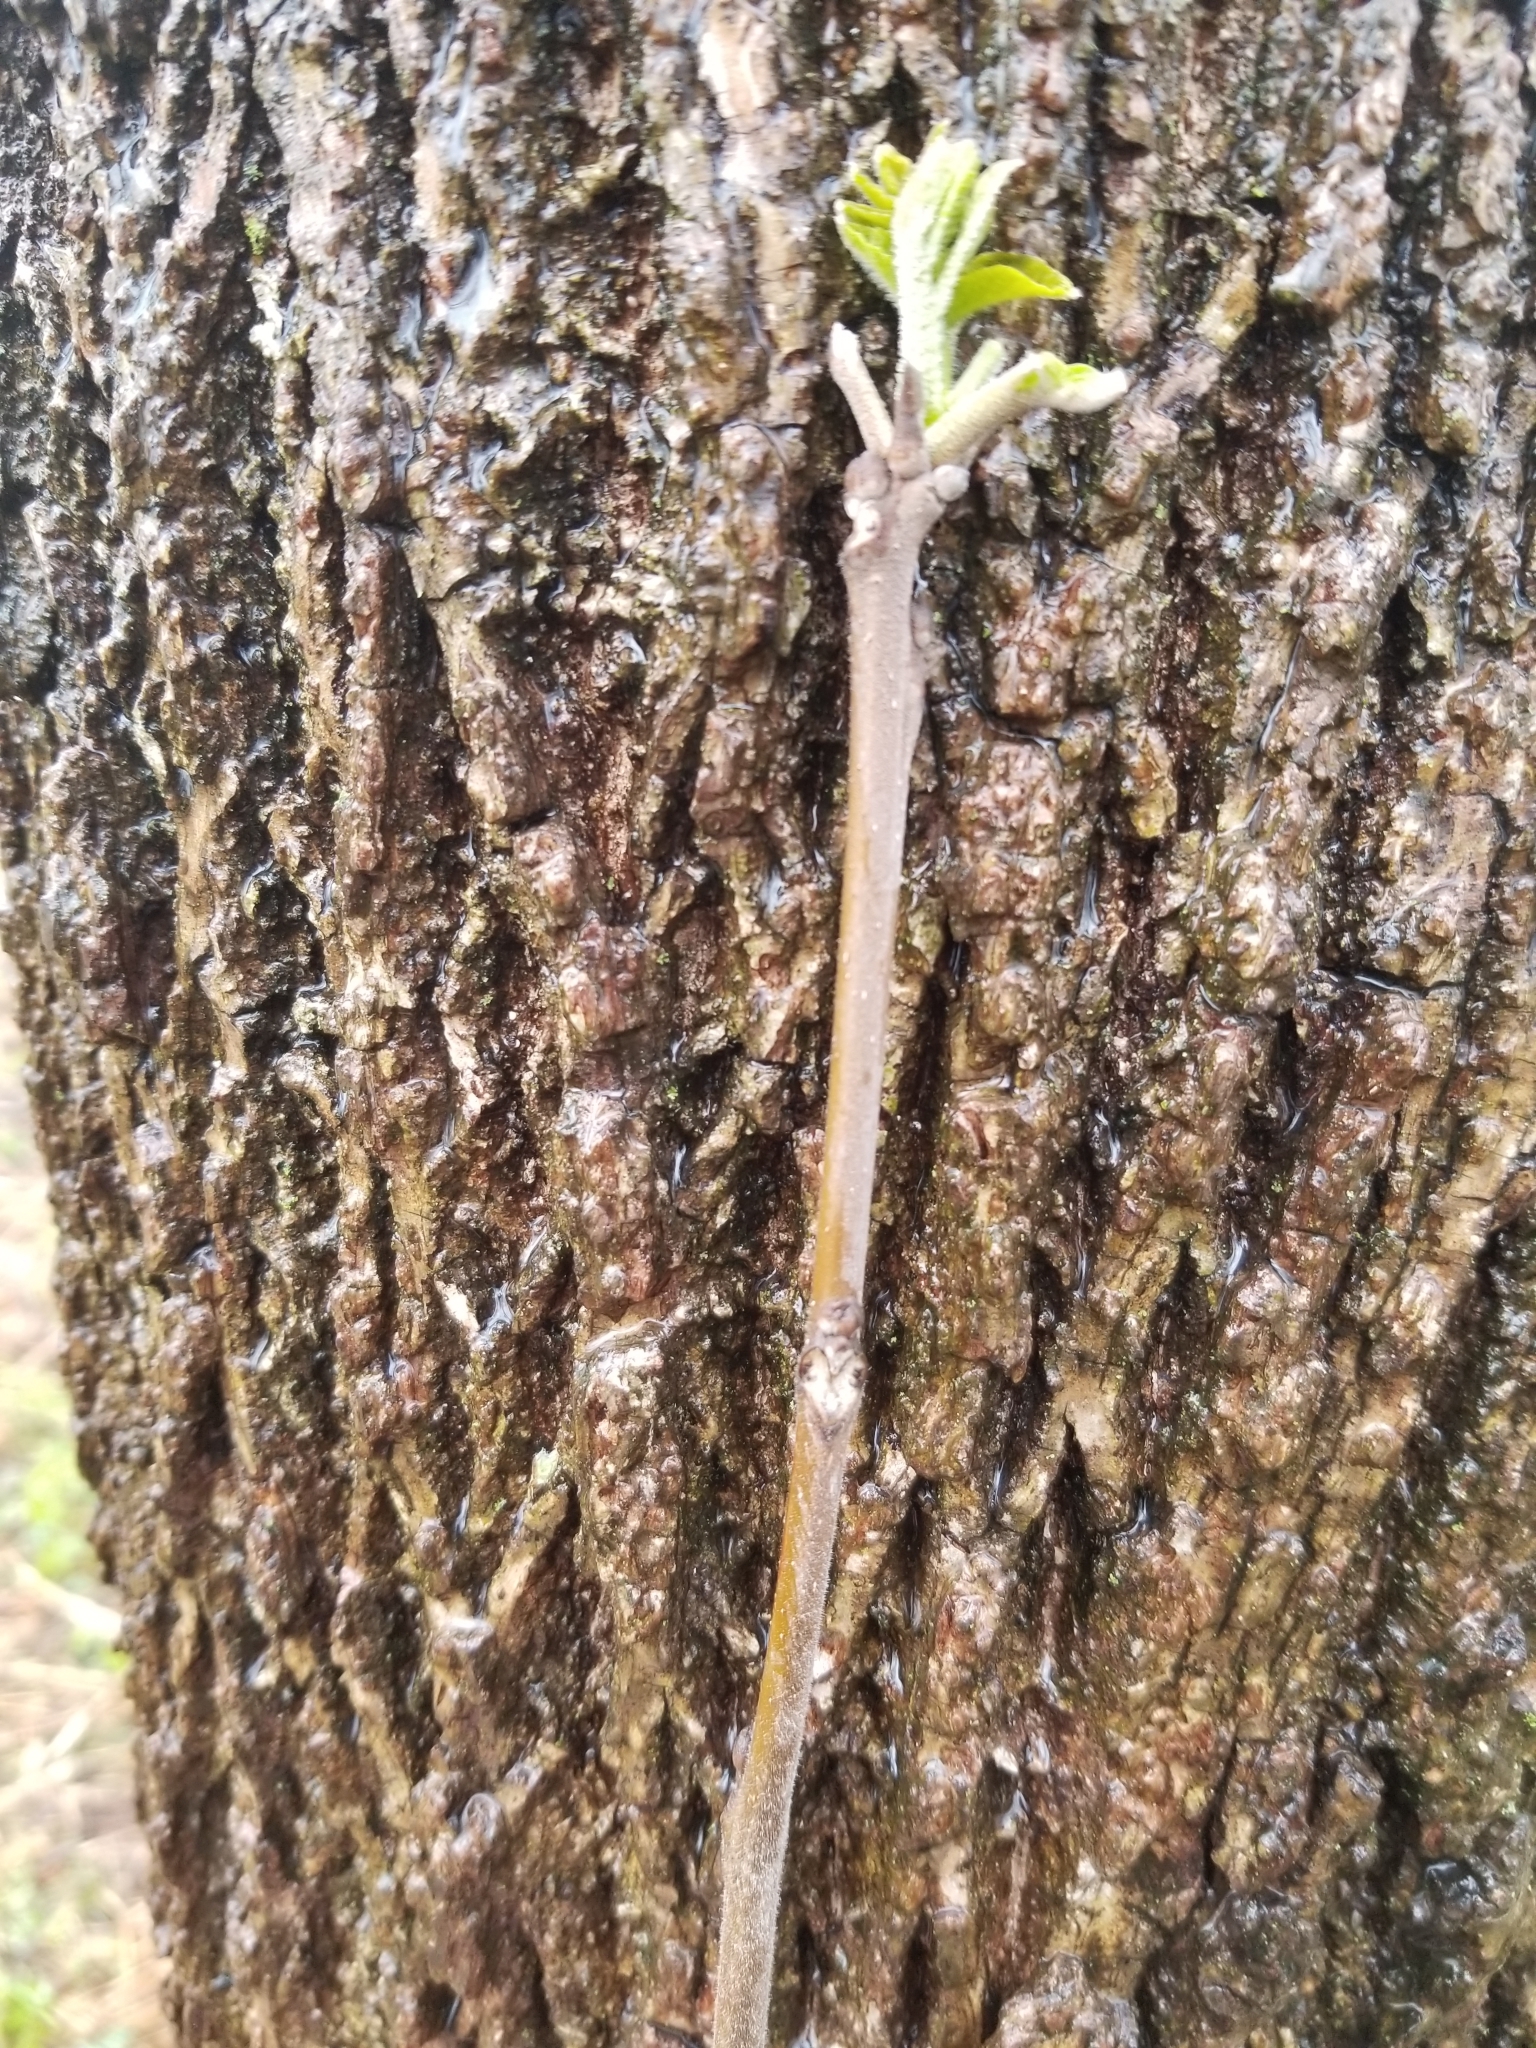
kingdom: Plantae
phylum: Tracheophyta
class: Magnoliopsida
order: Fagales
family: Juglandaceae
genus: Juglans
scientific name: Juglans nigra
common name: Black walnut
